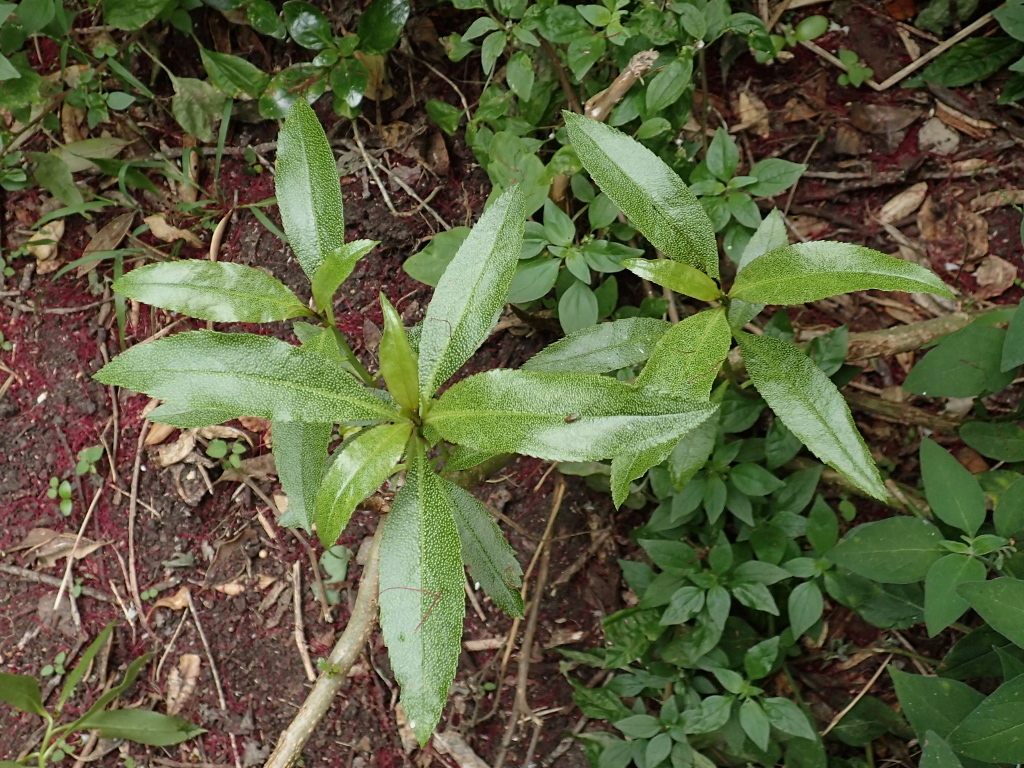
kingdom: Plantae
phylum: Tracheophyta
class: Magnoliopsida
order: Lamiales
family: Scrophulariaceae
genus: Myoporum
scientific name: Myoporum laetum
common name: Ngaio tree
